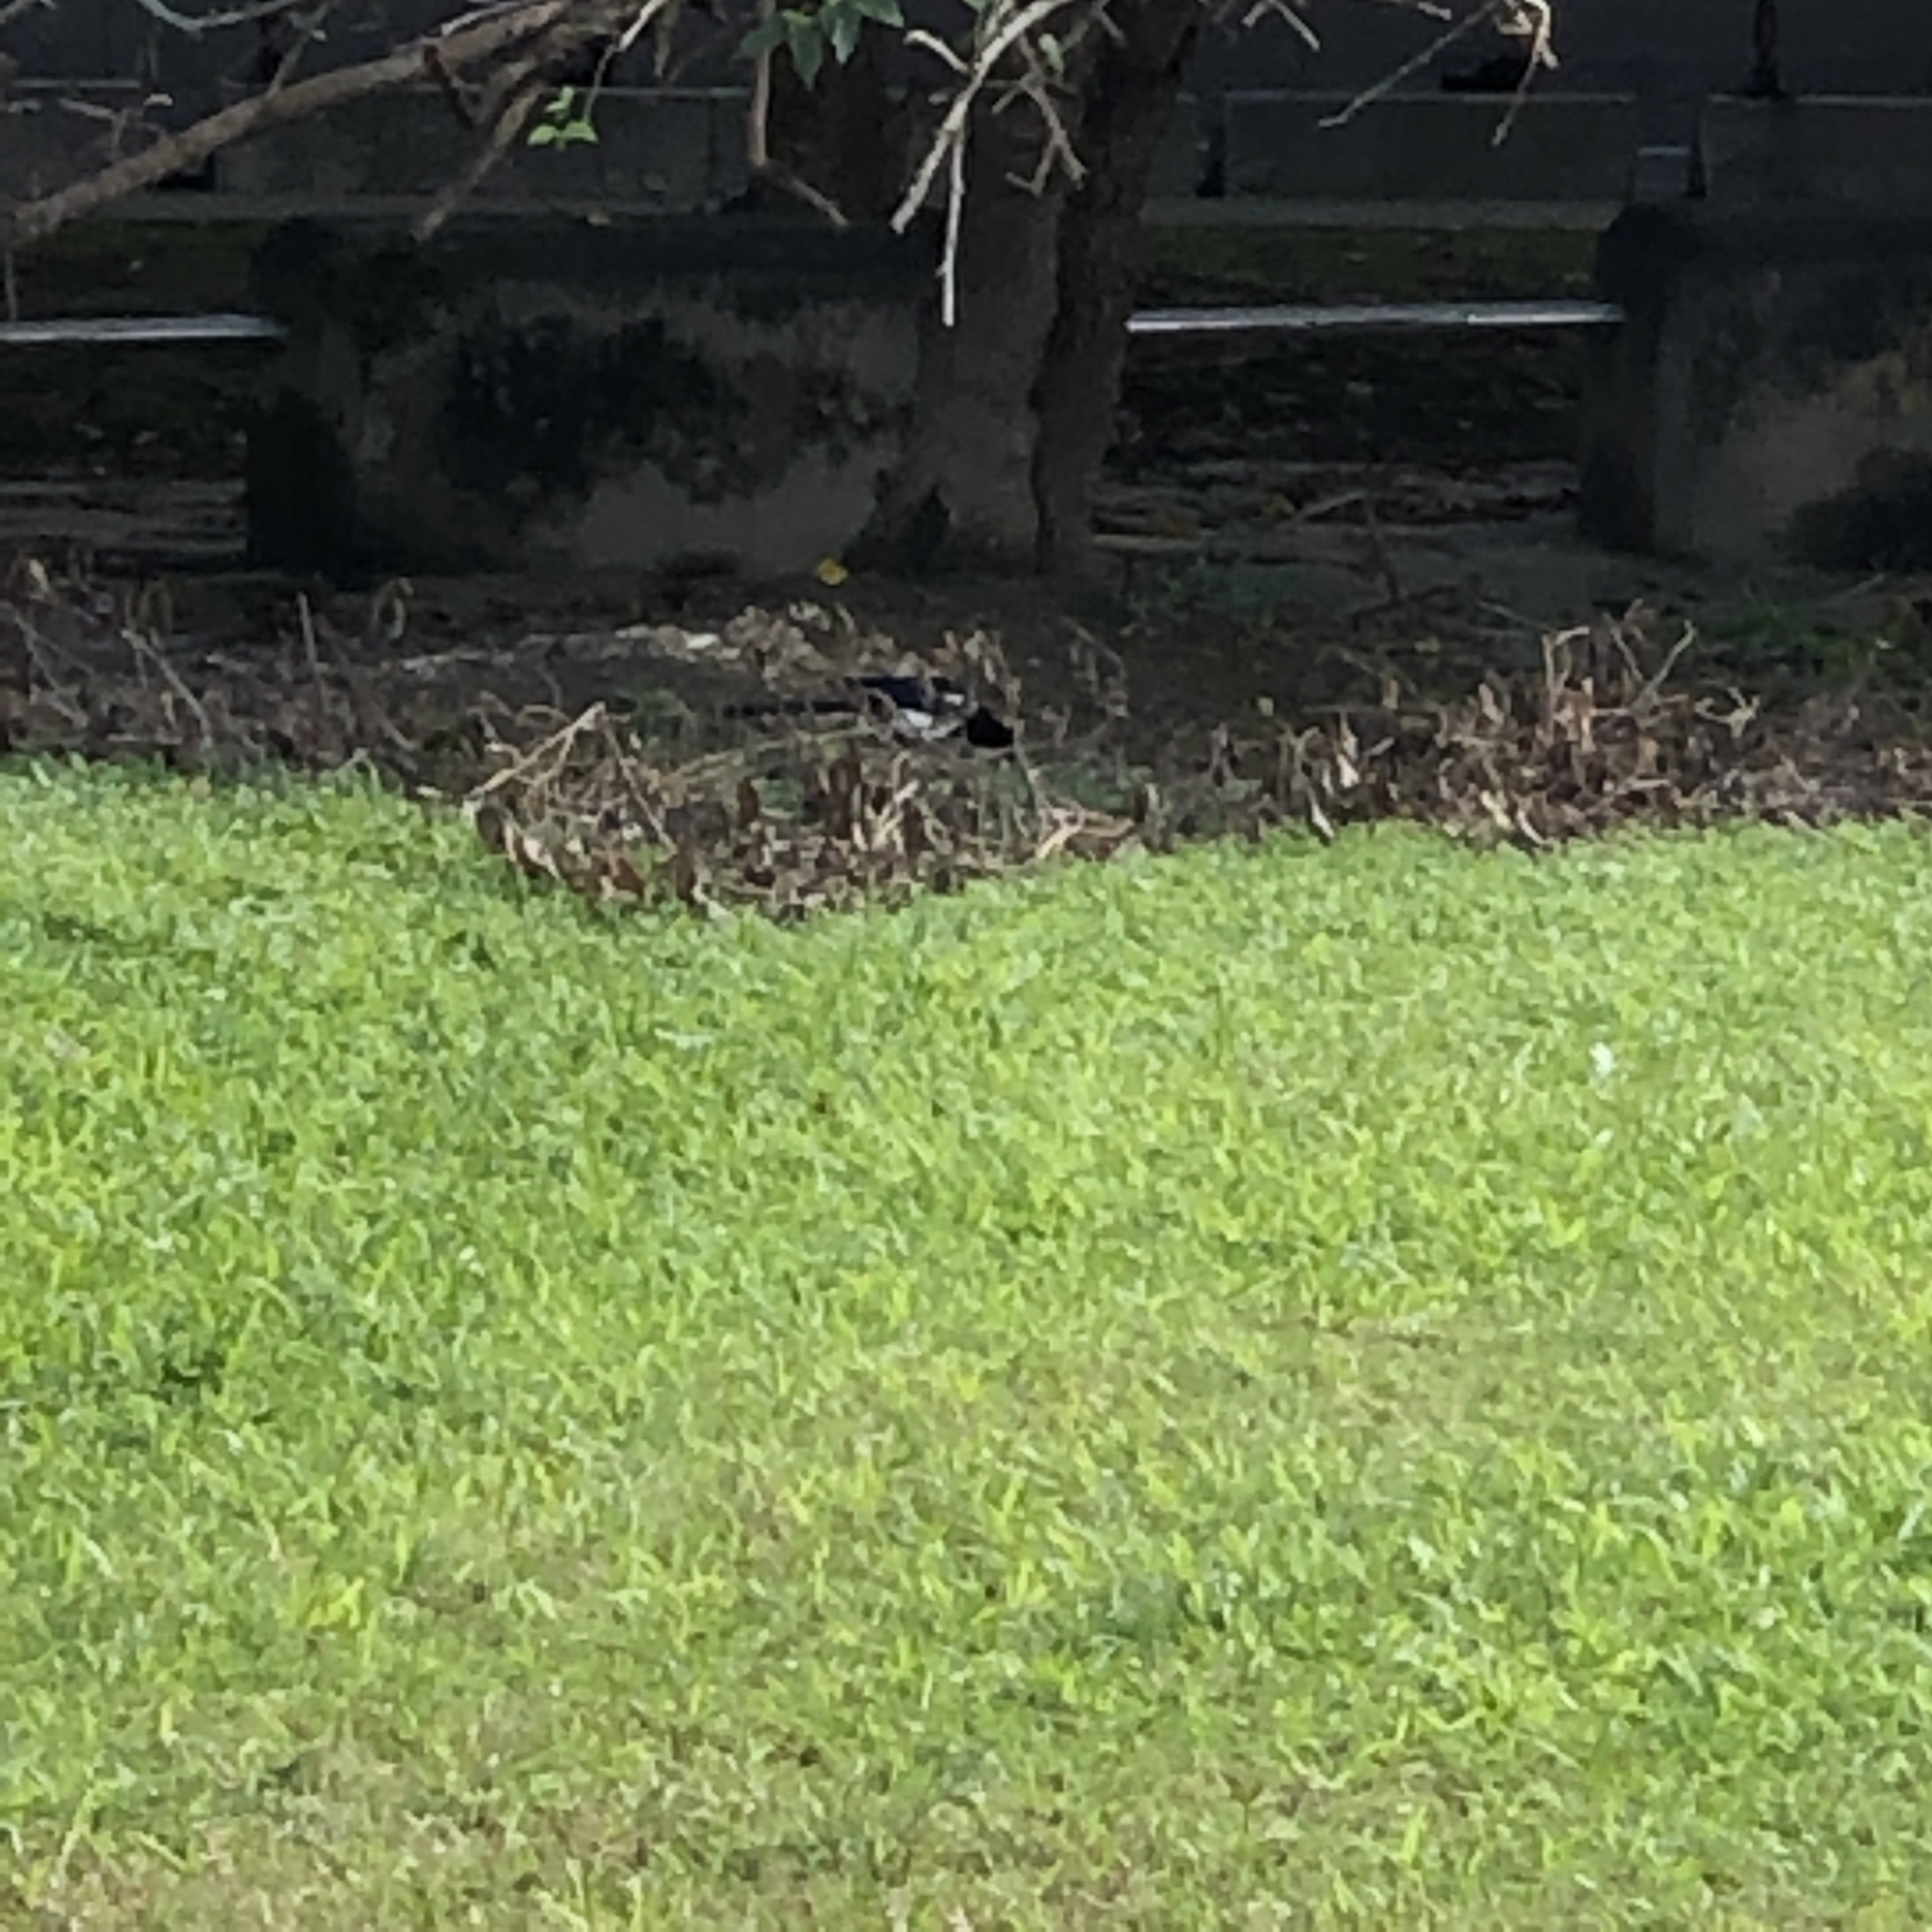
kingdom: Animalia
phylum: Chordata
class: Aves
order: Passeriformes
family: Corvidae
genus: Pica
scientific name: Pica serica
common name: Oriental magpie
